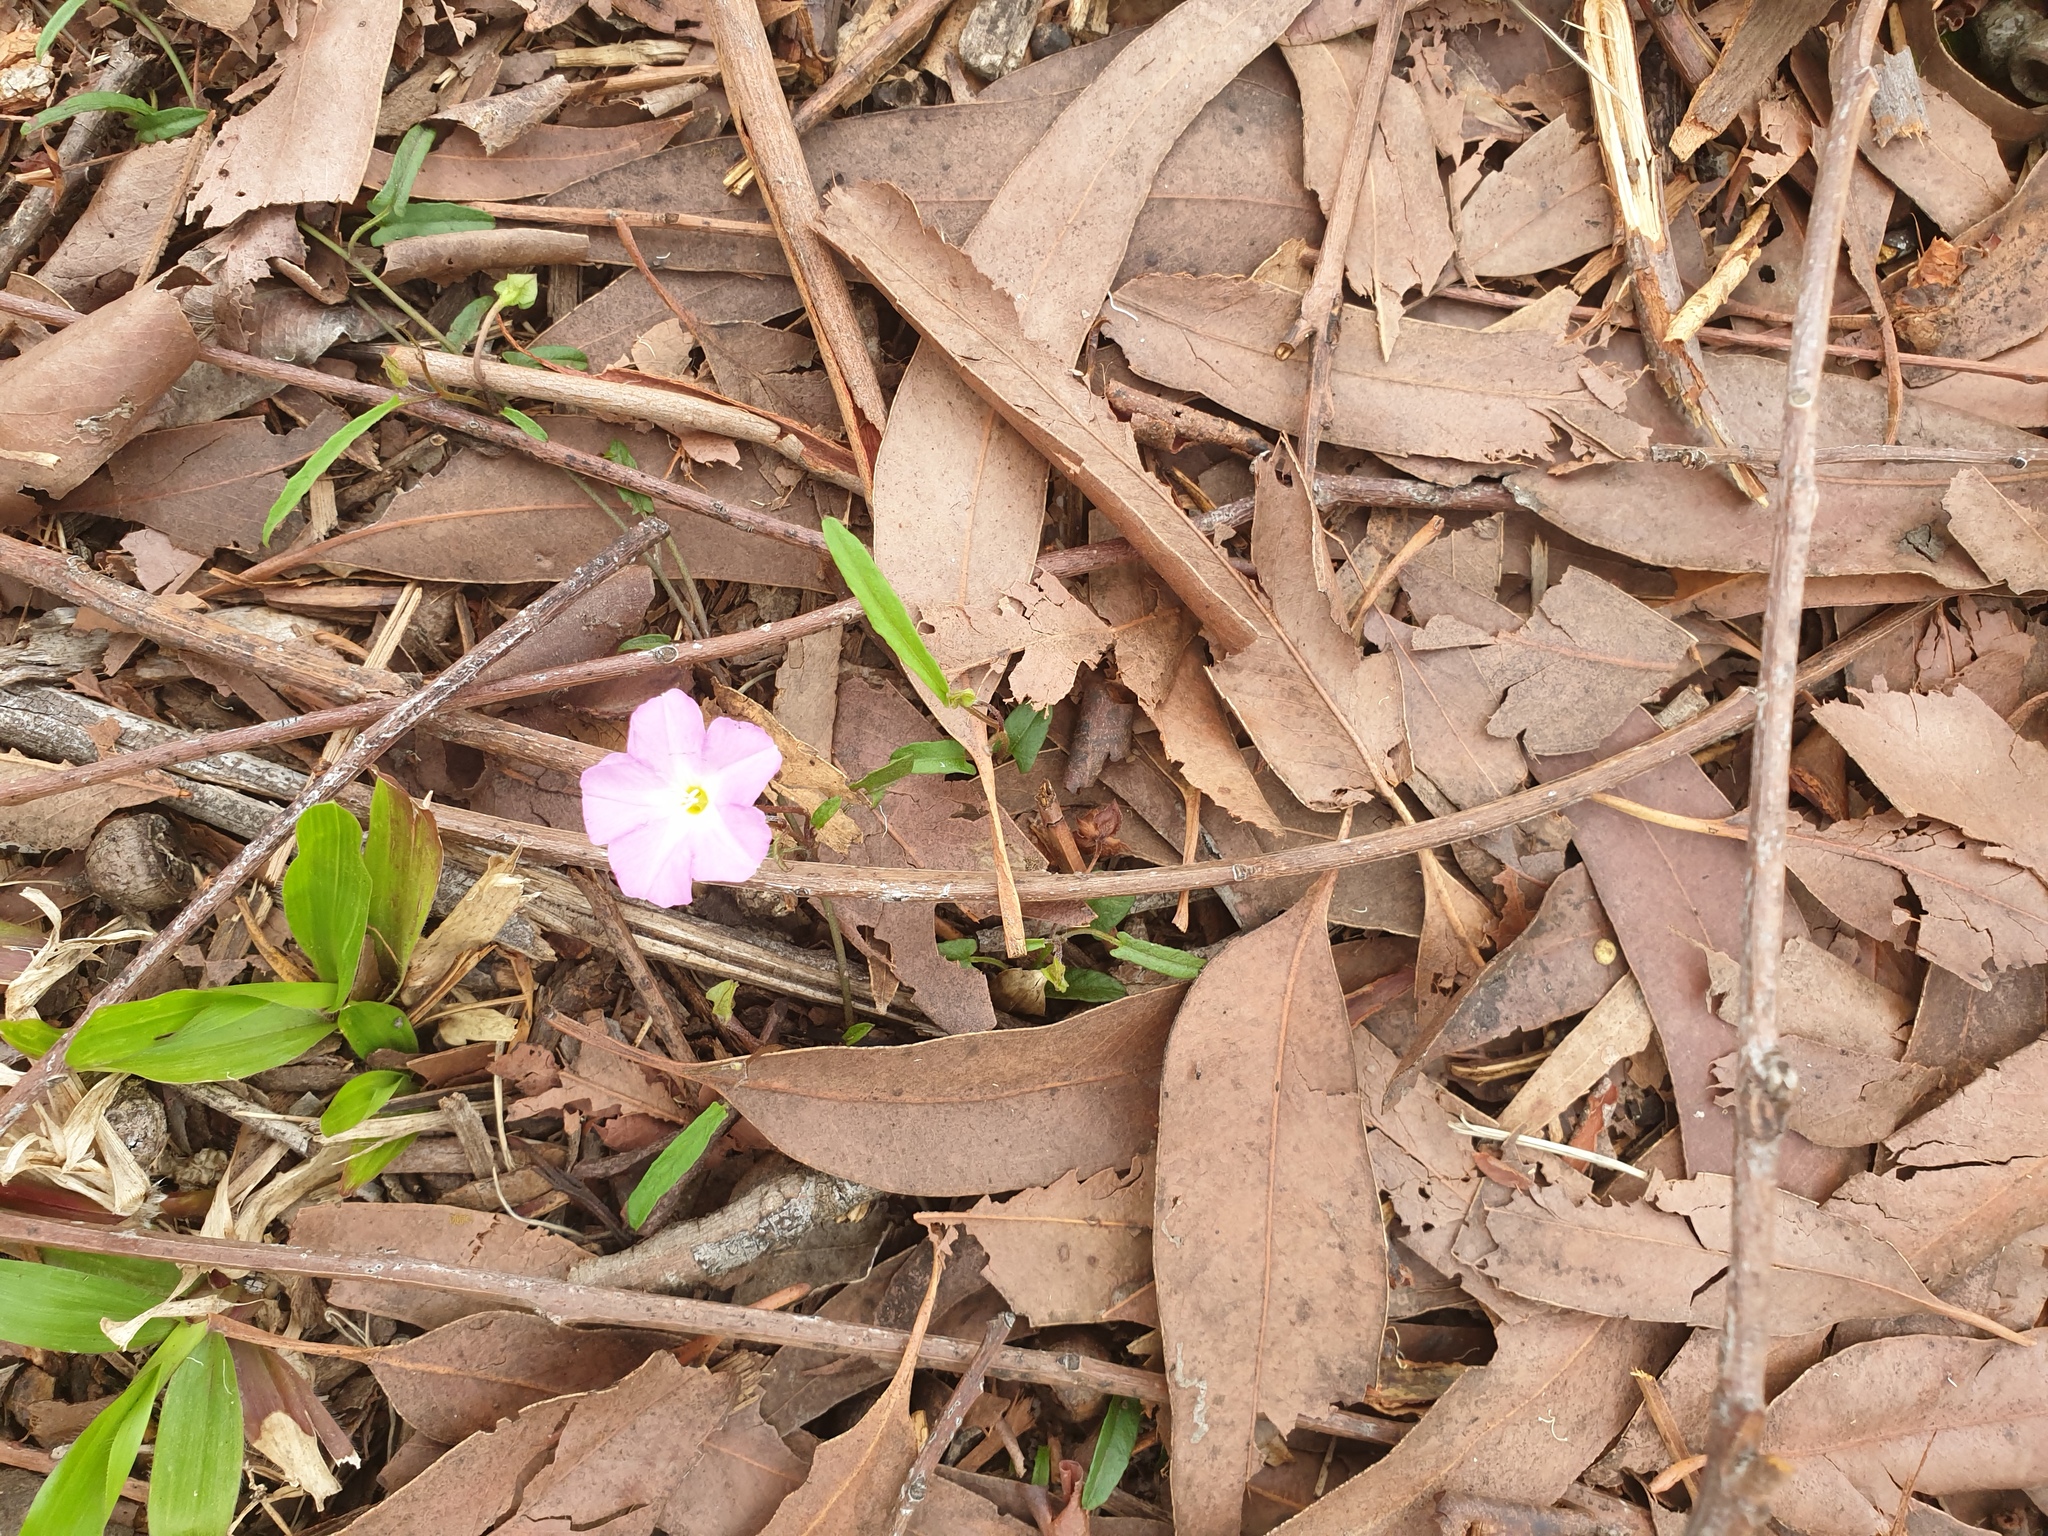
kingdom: Plantae
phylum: Tracheophyta
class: Magnoliopsida
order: Solanales
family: Convolvulaceae
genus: Polymeria
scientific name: Polymeria calycina
